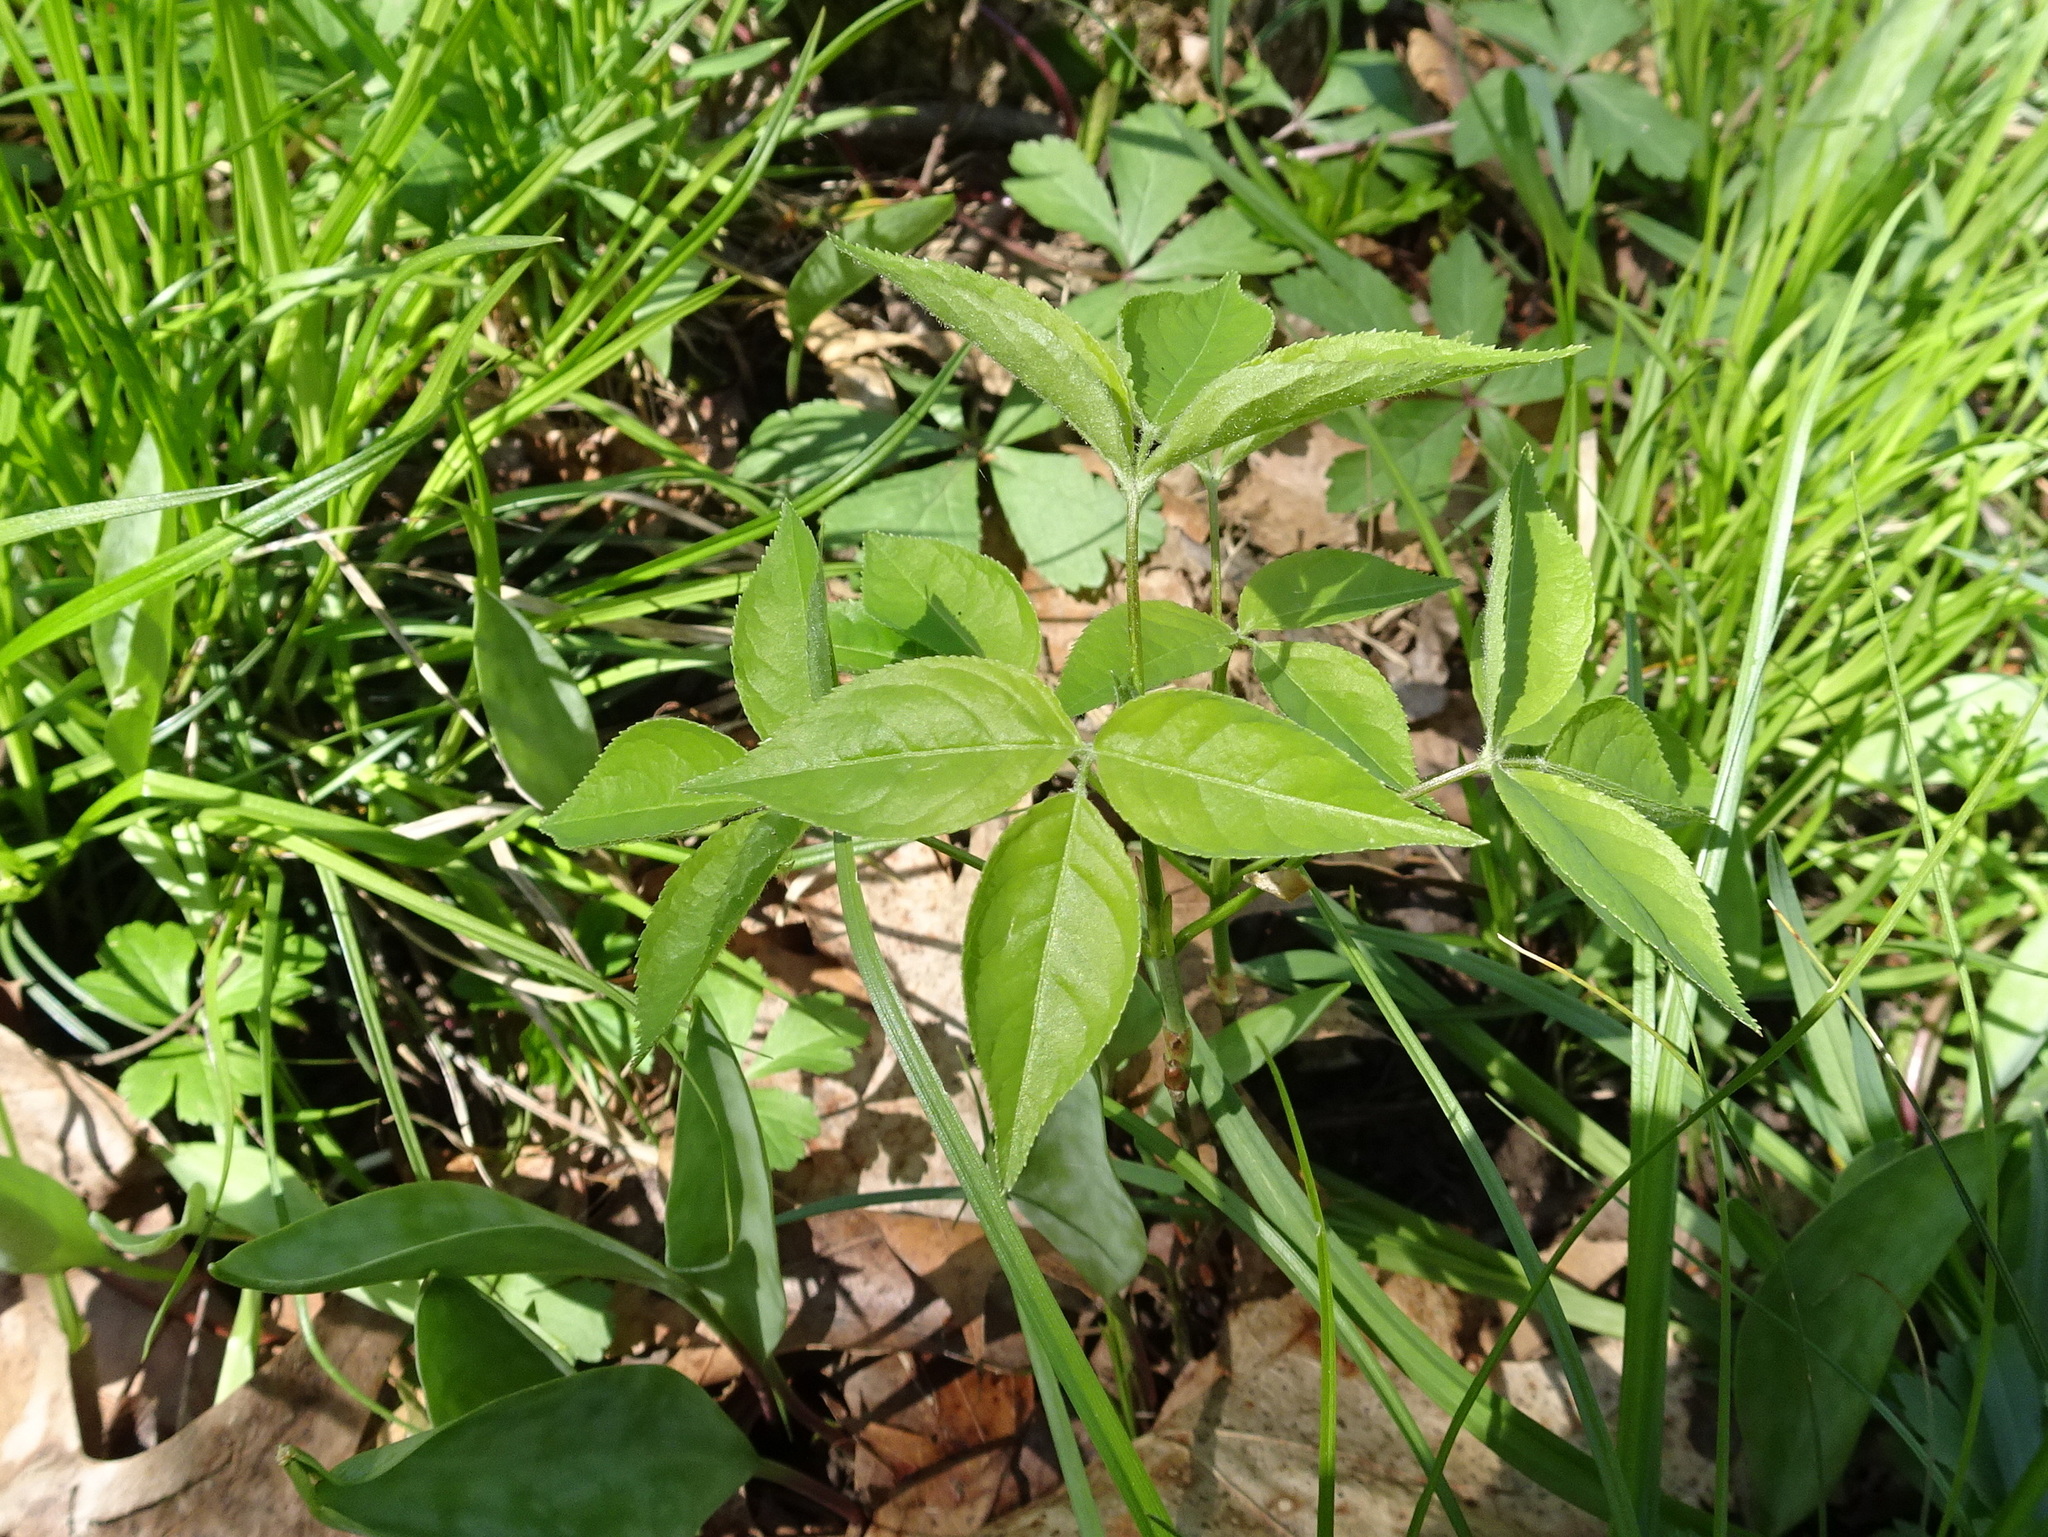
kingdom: Plantae
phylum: Tracheophyta
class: Magnoliopsida
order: Crossosomatales
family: Staphyleaceae
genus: Staphylea
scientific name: Staphylea trifolia
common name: American bladdernut
